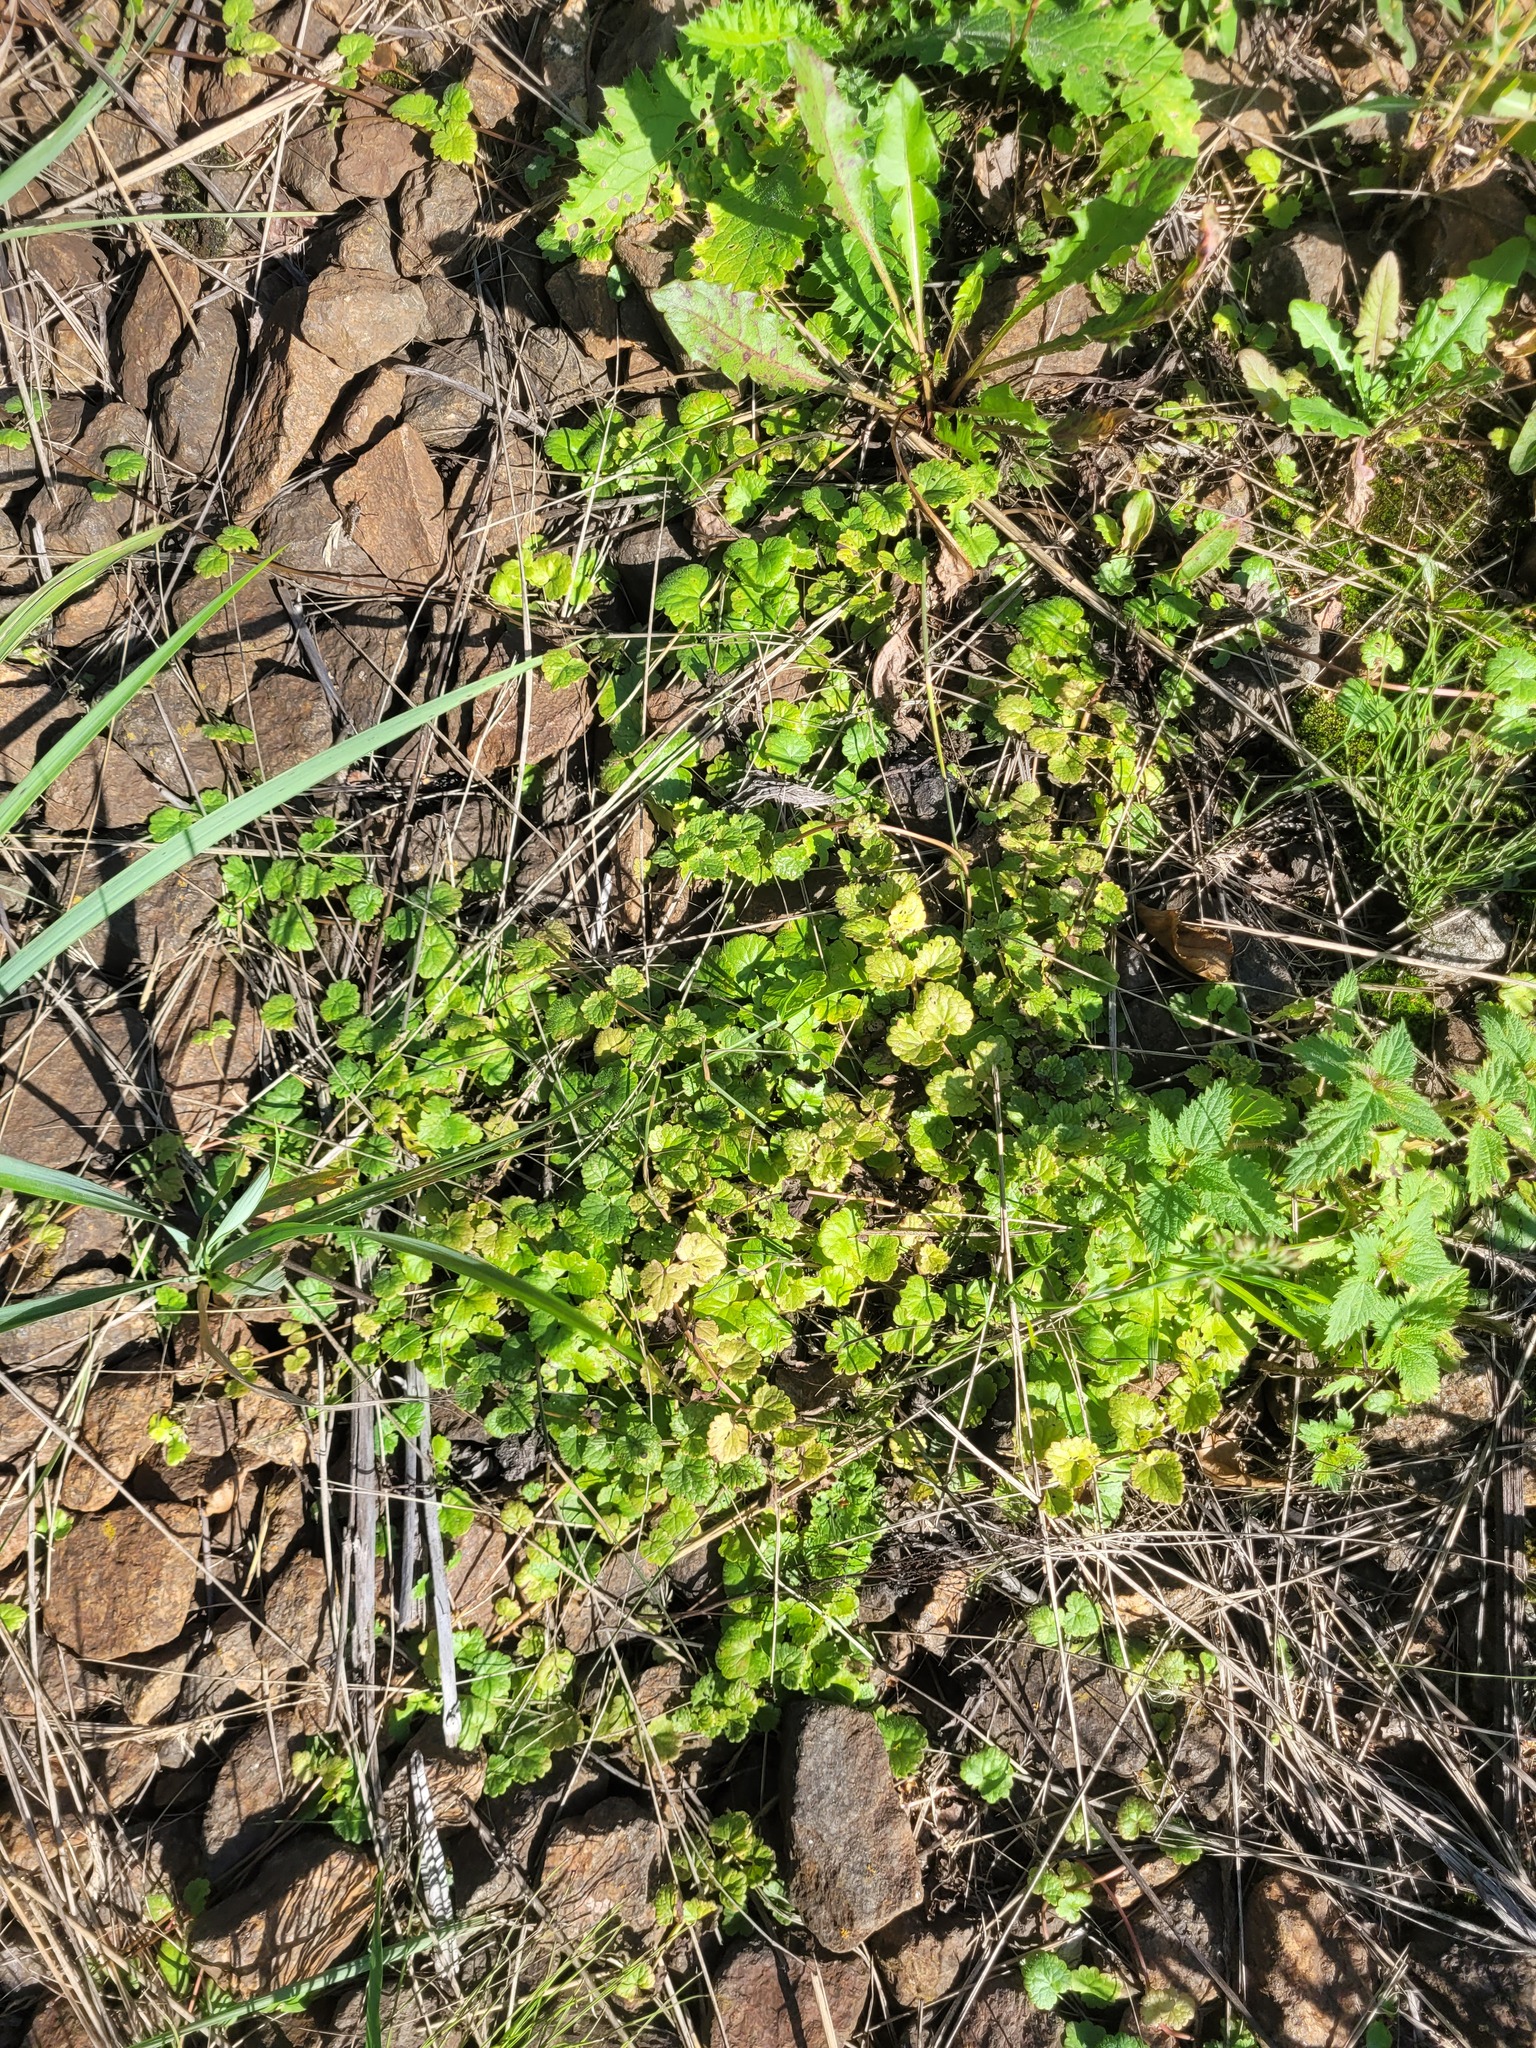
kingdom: Plantae
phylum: Tracheophyta
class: Magnoliopsida
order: Lamiales
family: Lamiaceae
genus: Glechoma
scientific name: Glechoma hederacea
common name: Ground ivy
